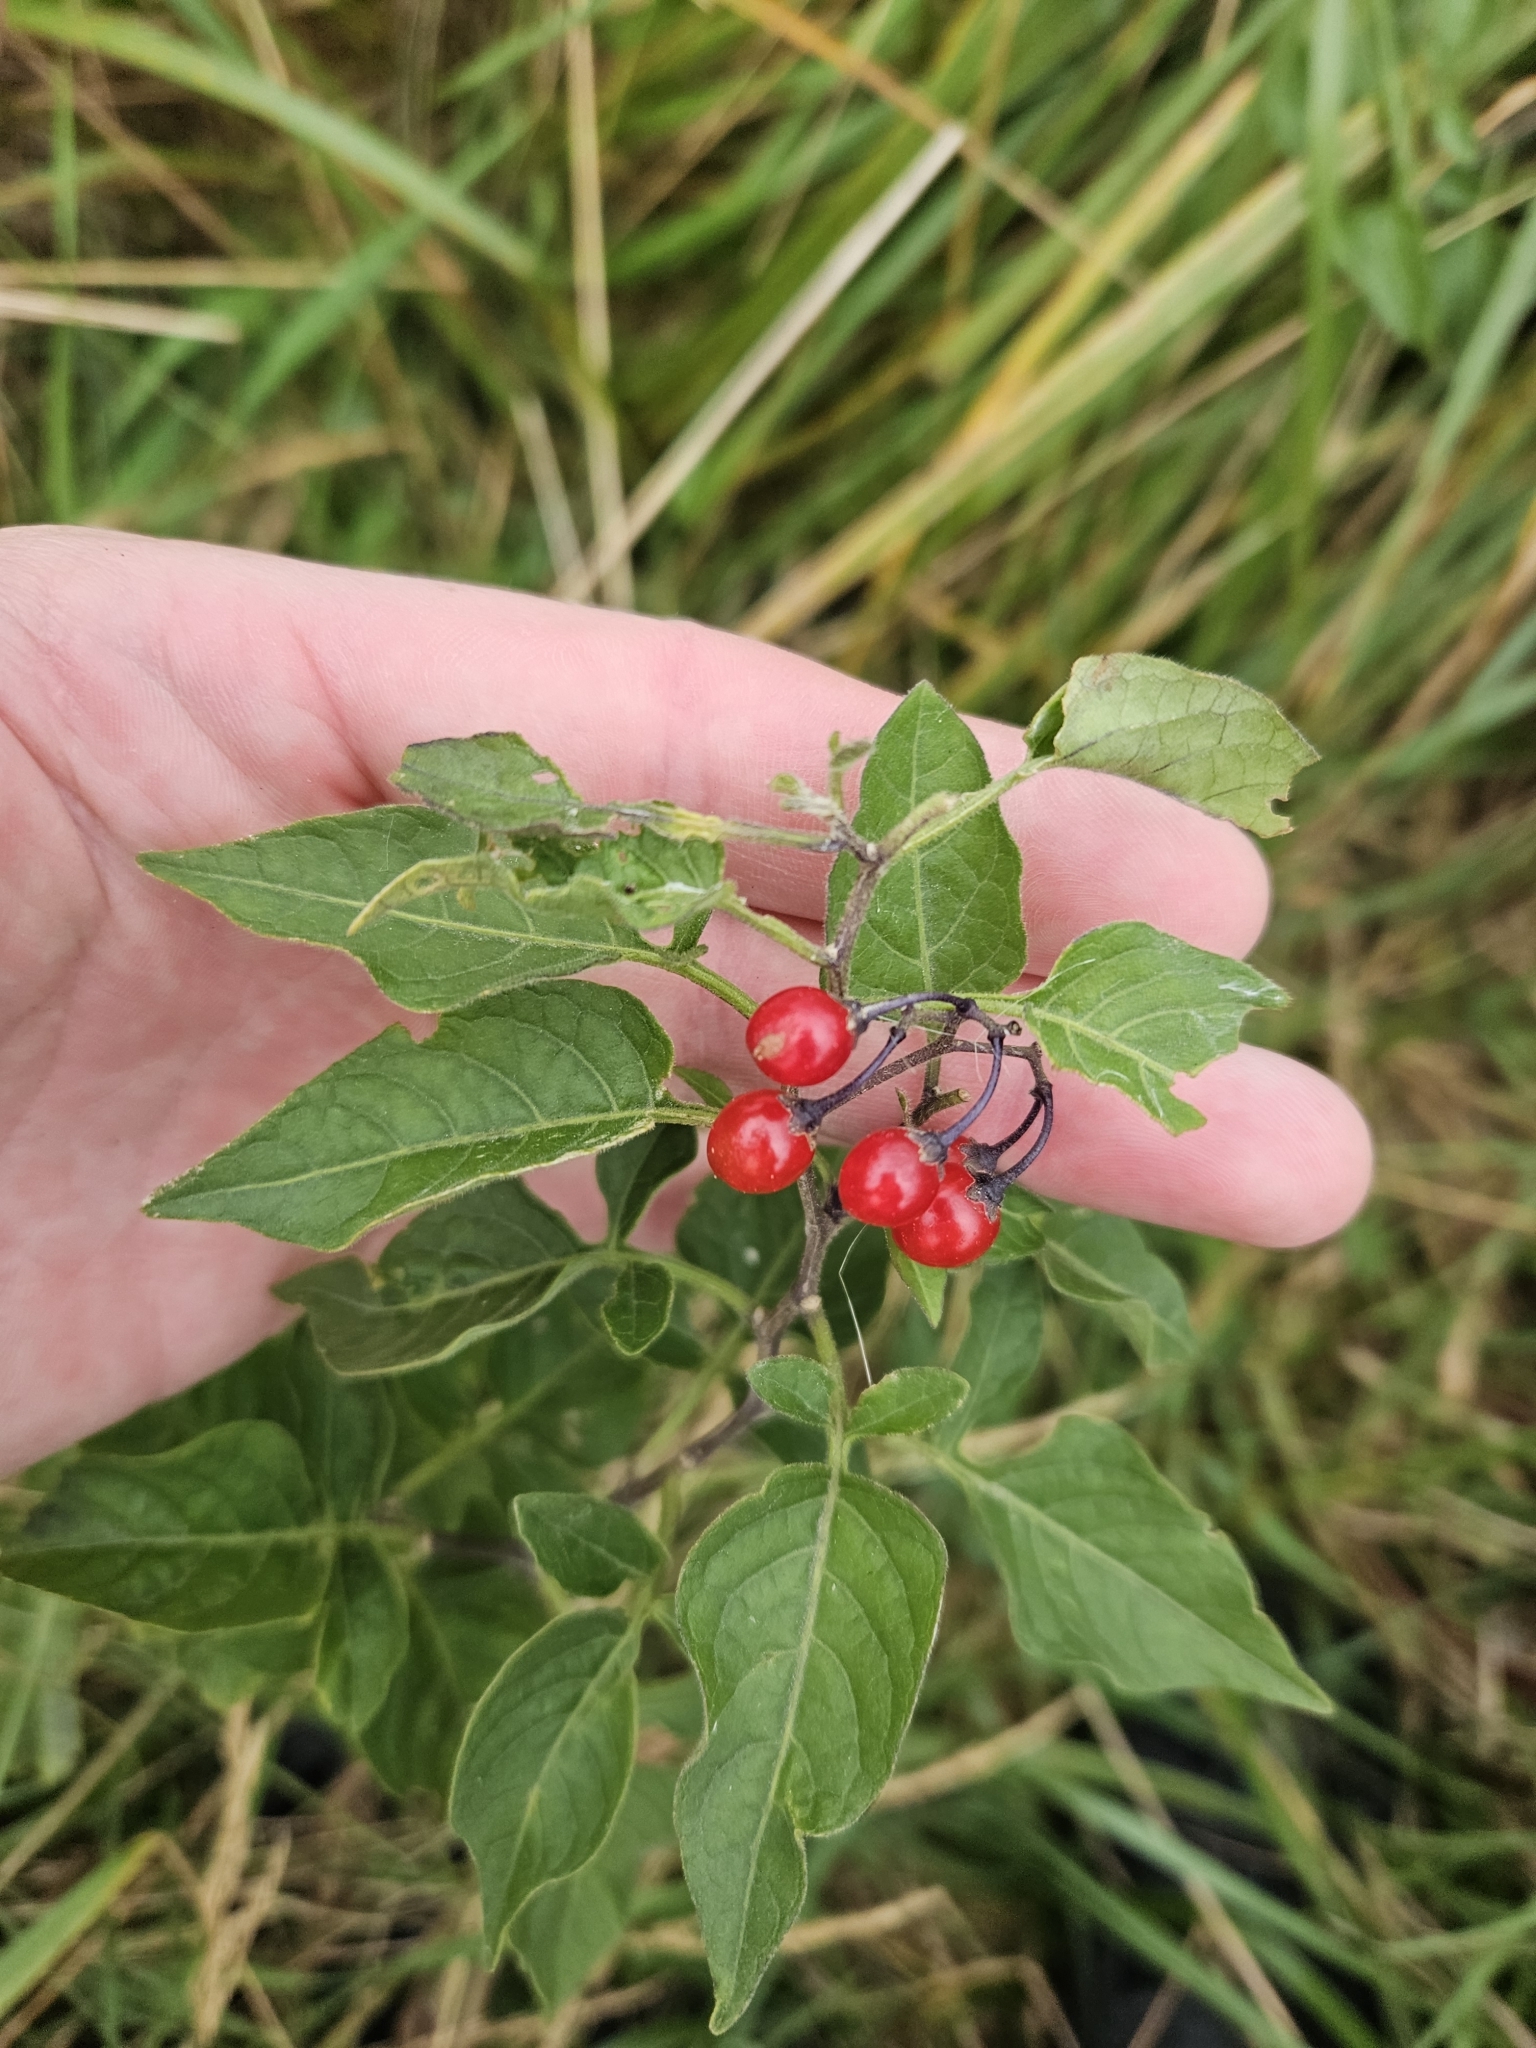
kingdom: Plantae
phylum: Tracheophyta
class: Magnoliopsida
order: Solanales
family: Solanaceae
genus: Solanum
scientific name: Solanum dulcamara
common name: Climbing nightshade
